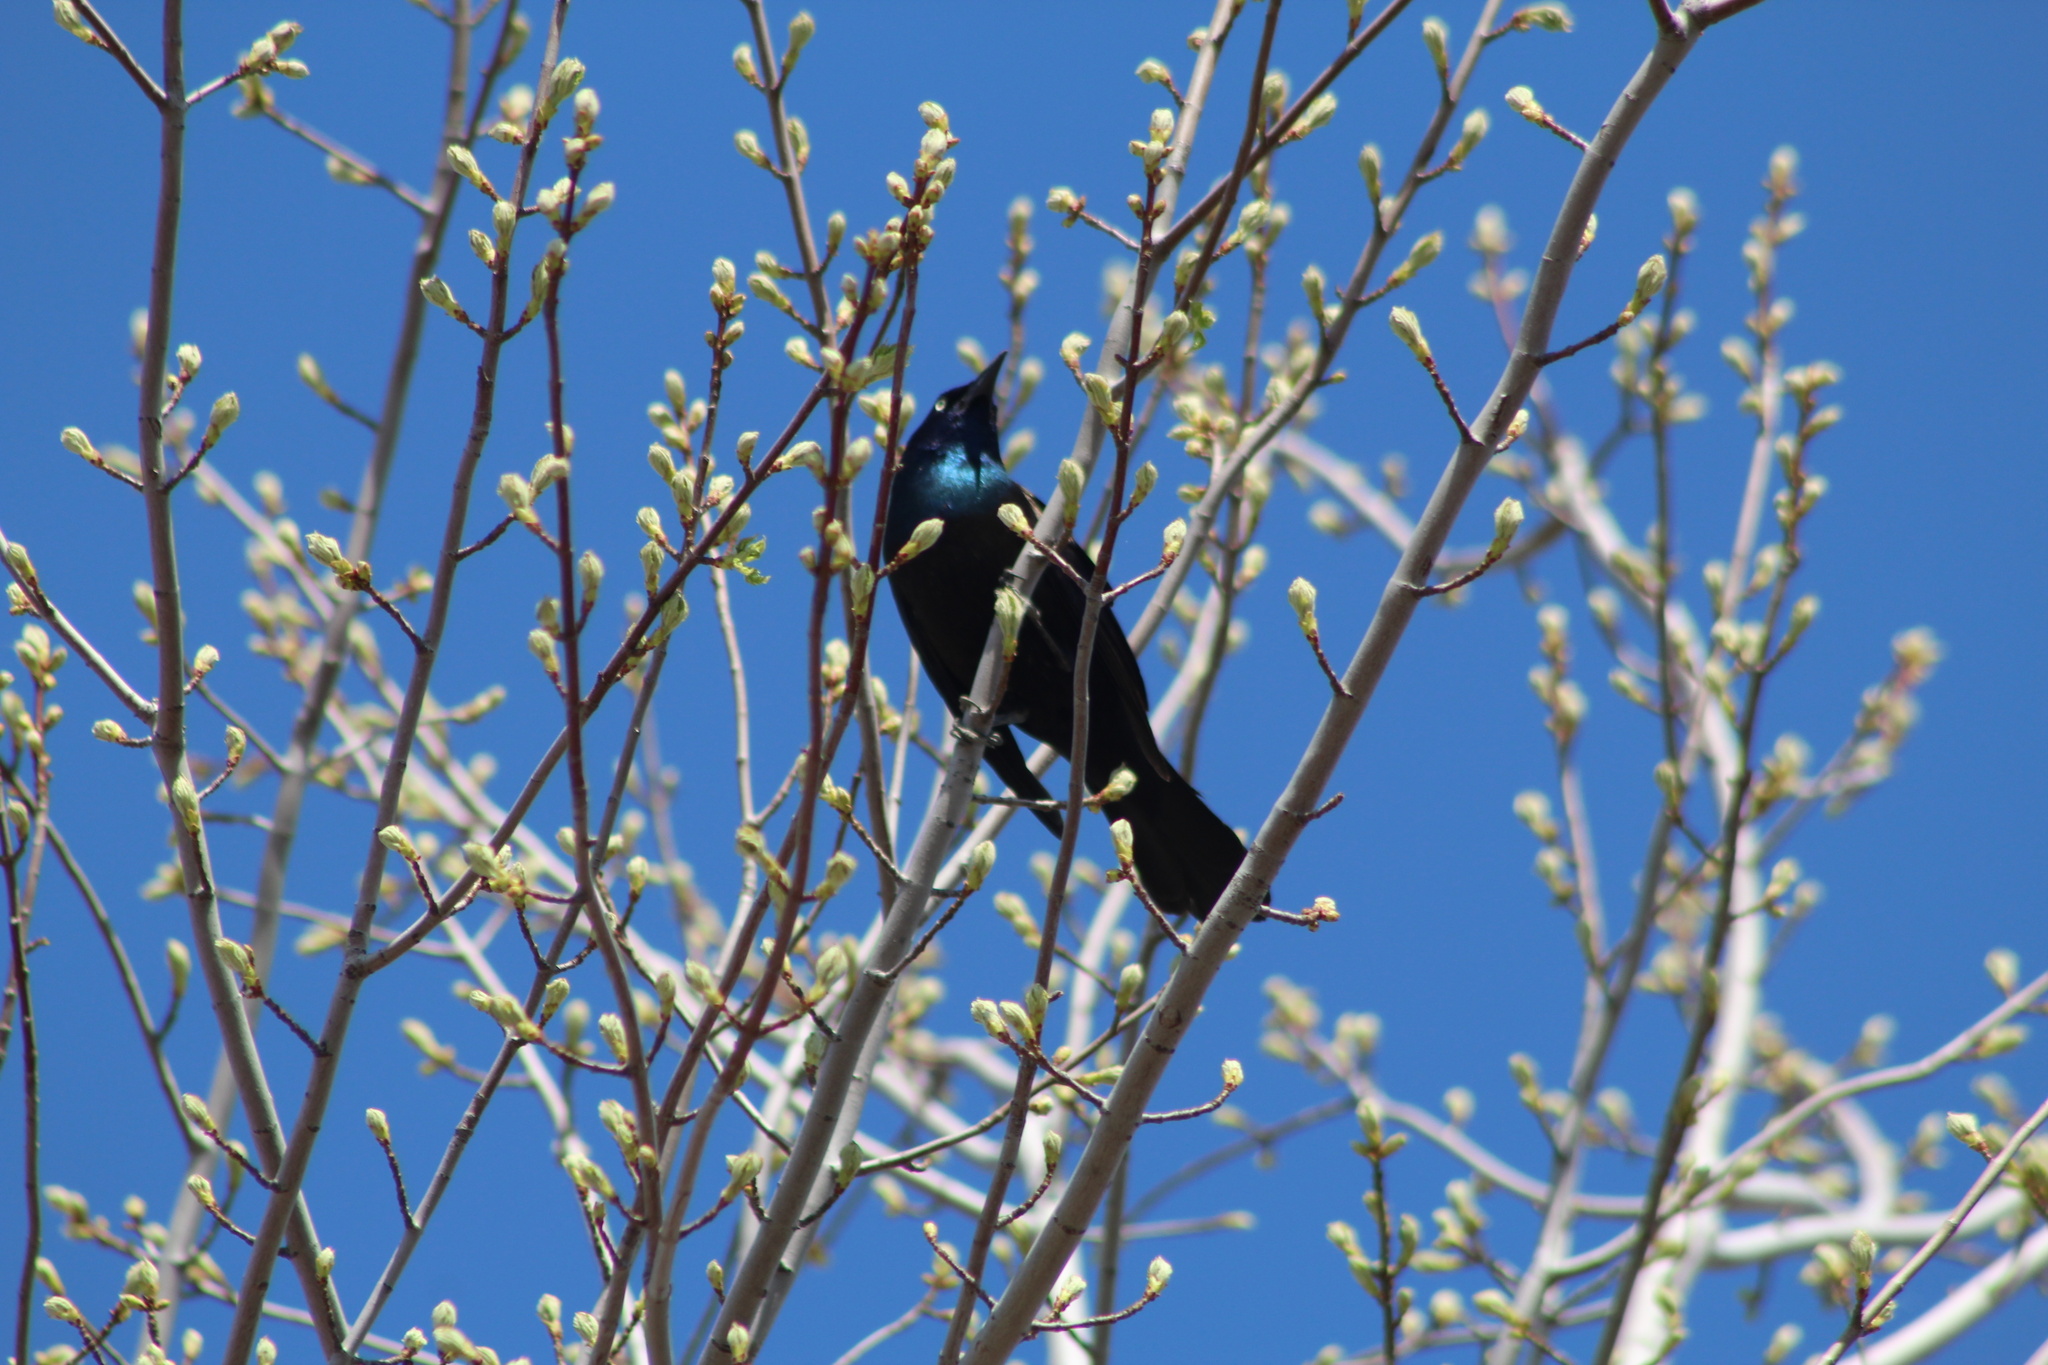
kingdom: Animalia
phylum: Chordata
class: Aves
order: Passeriformes
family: Icteridae
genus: Quiscalus
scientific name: Quiscalus quiscula
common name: Common grackle
